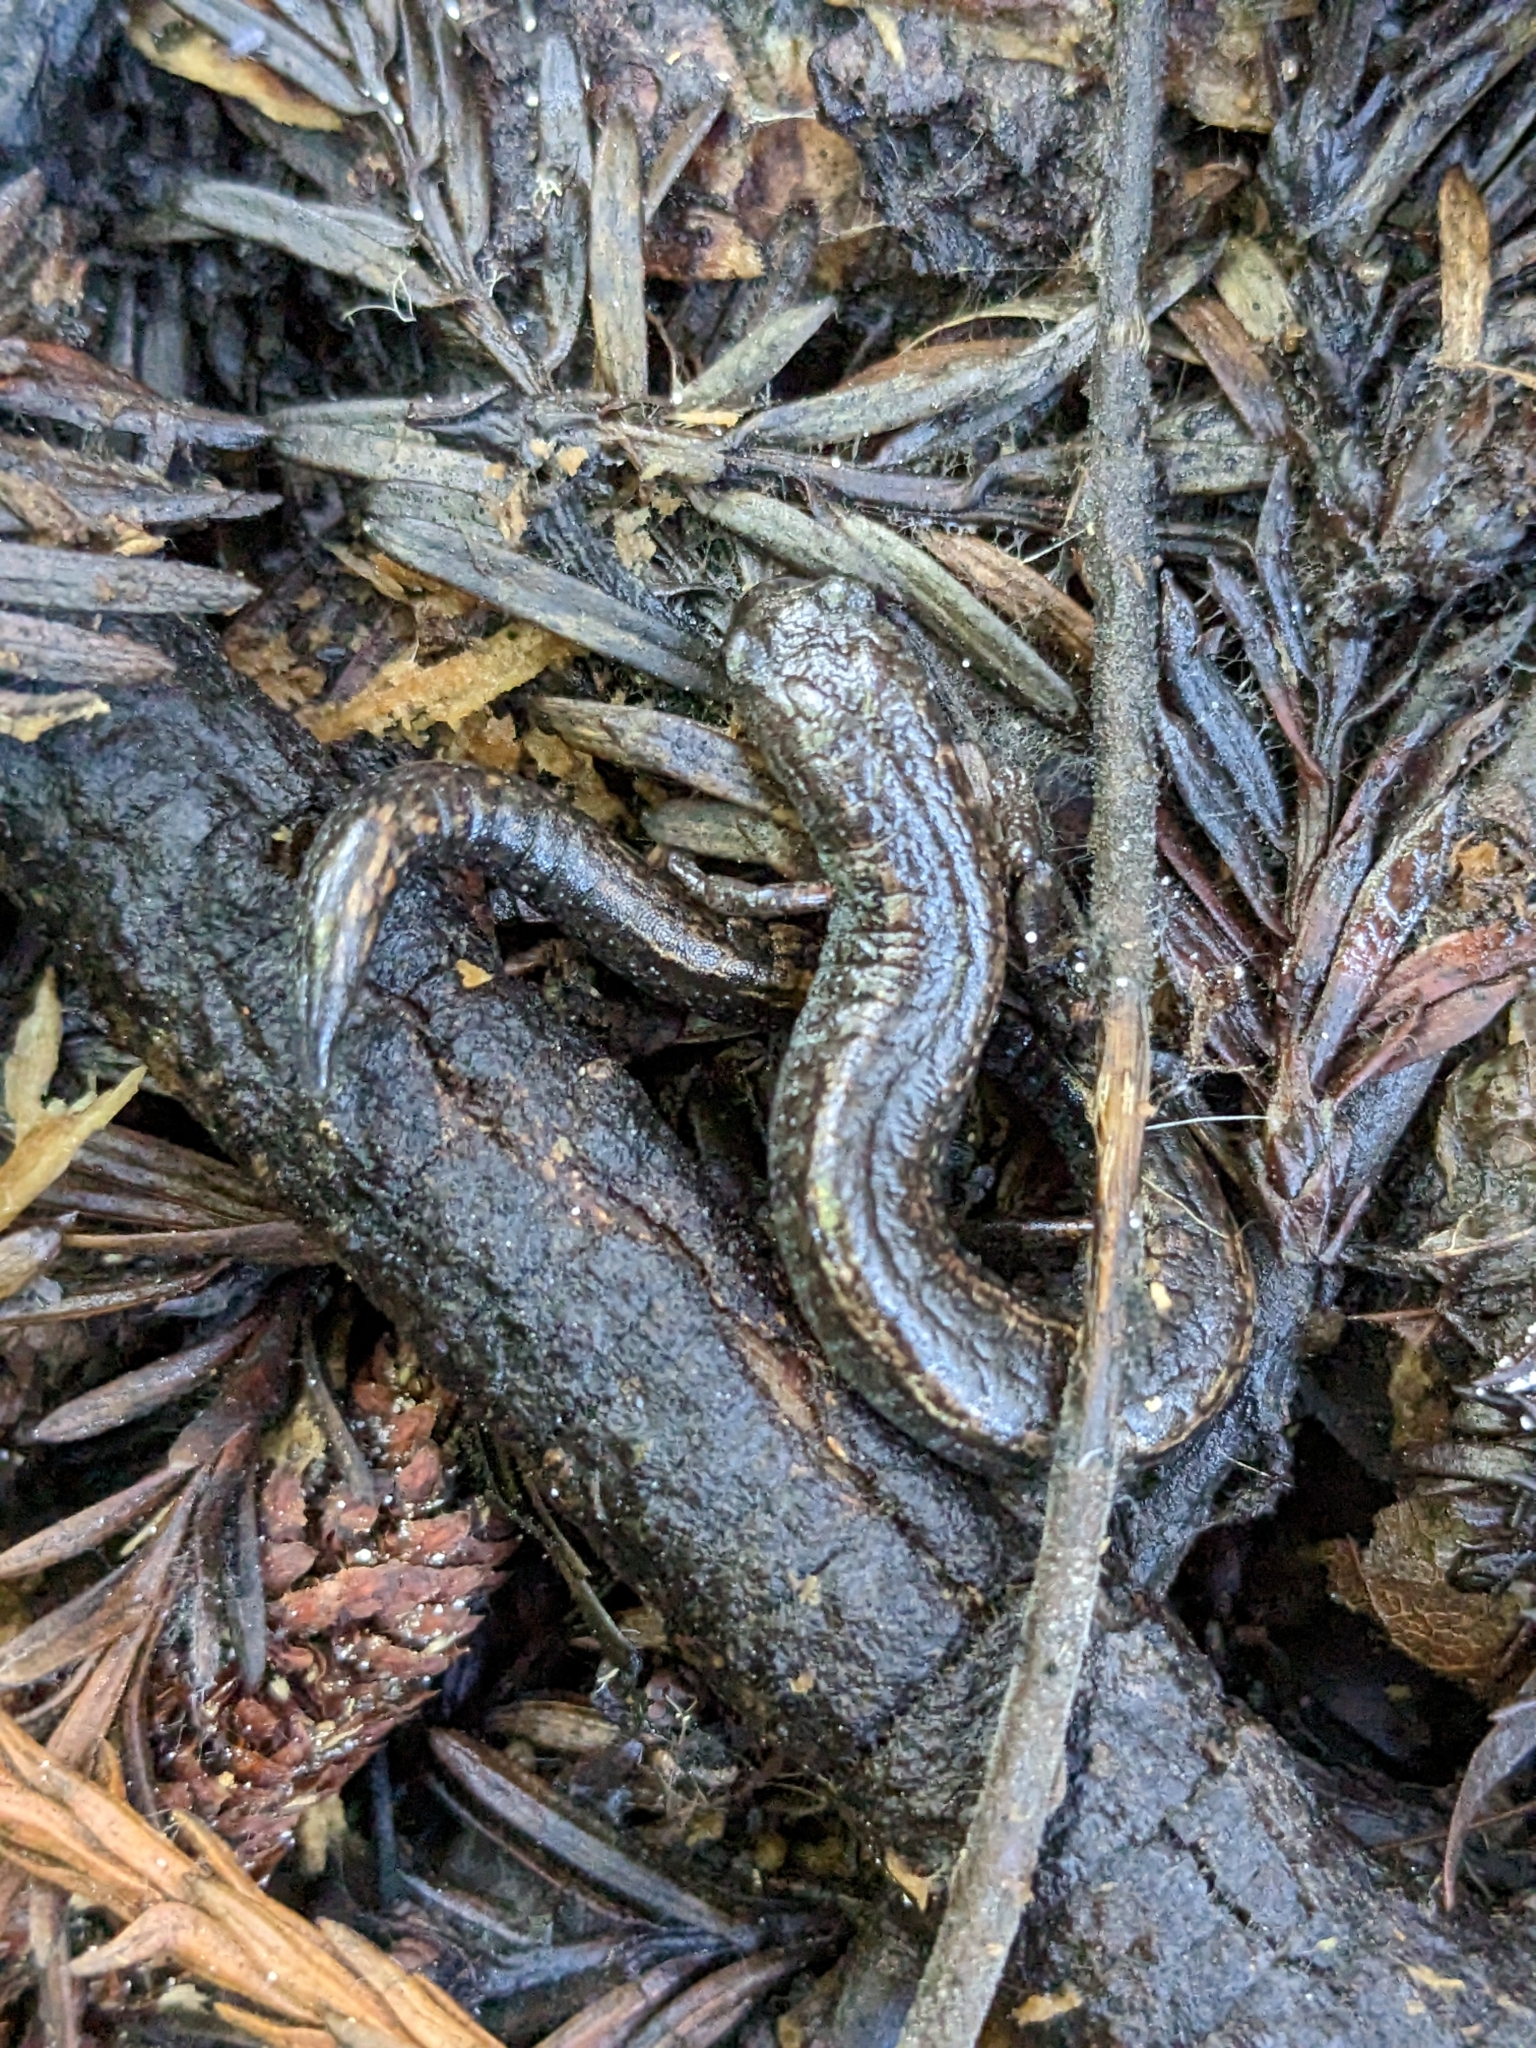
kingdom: Animalia
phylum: Chordata
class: Amphibia
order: Caudata
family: Plethodontidae
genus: Batrachoseps
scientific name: Batrachoseps attenuatus
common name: California slender salamander
